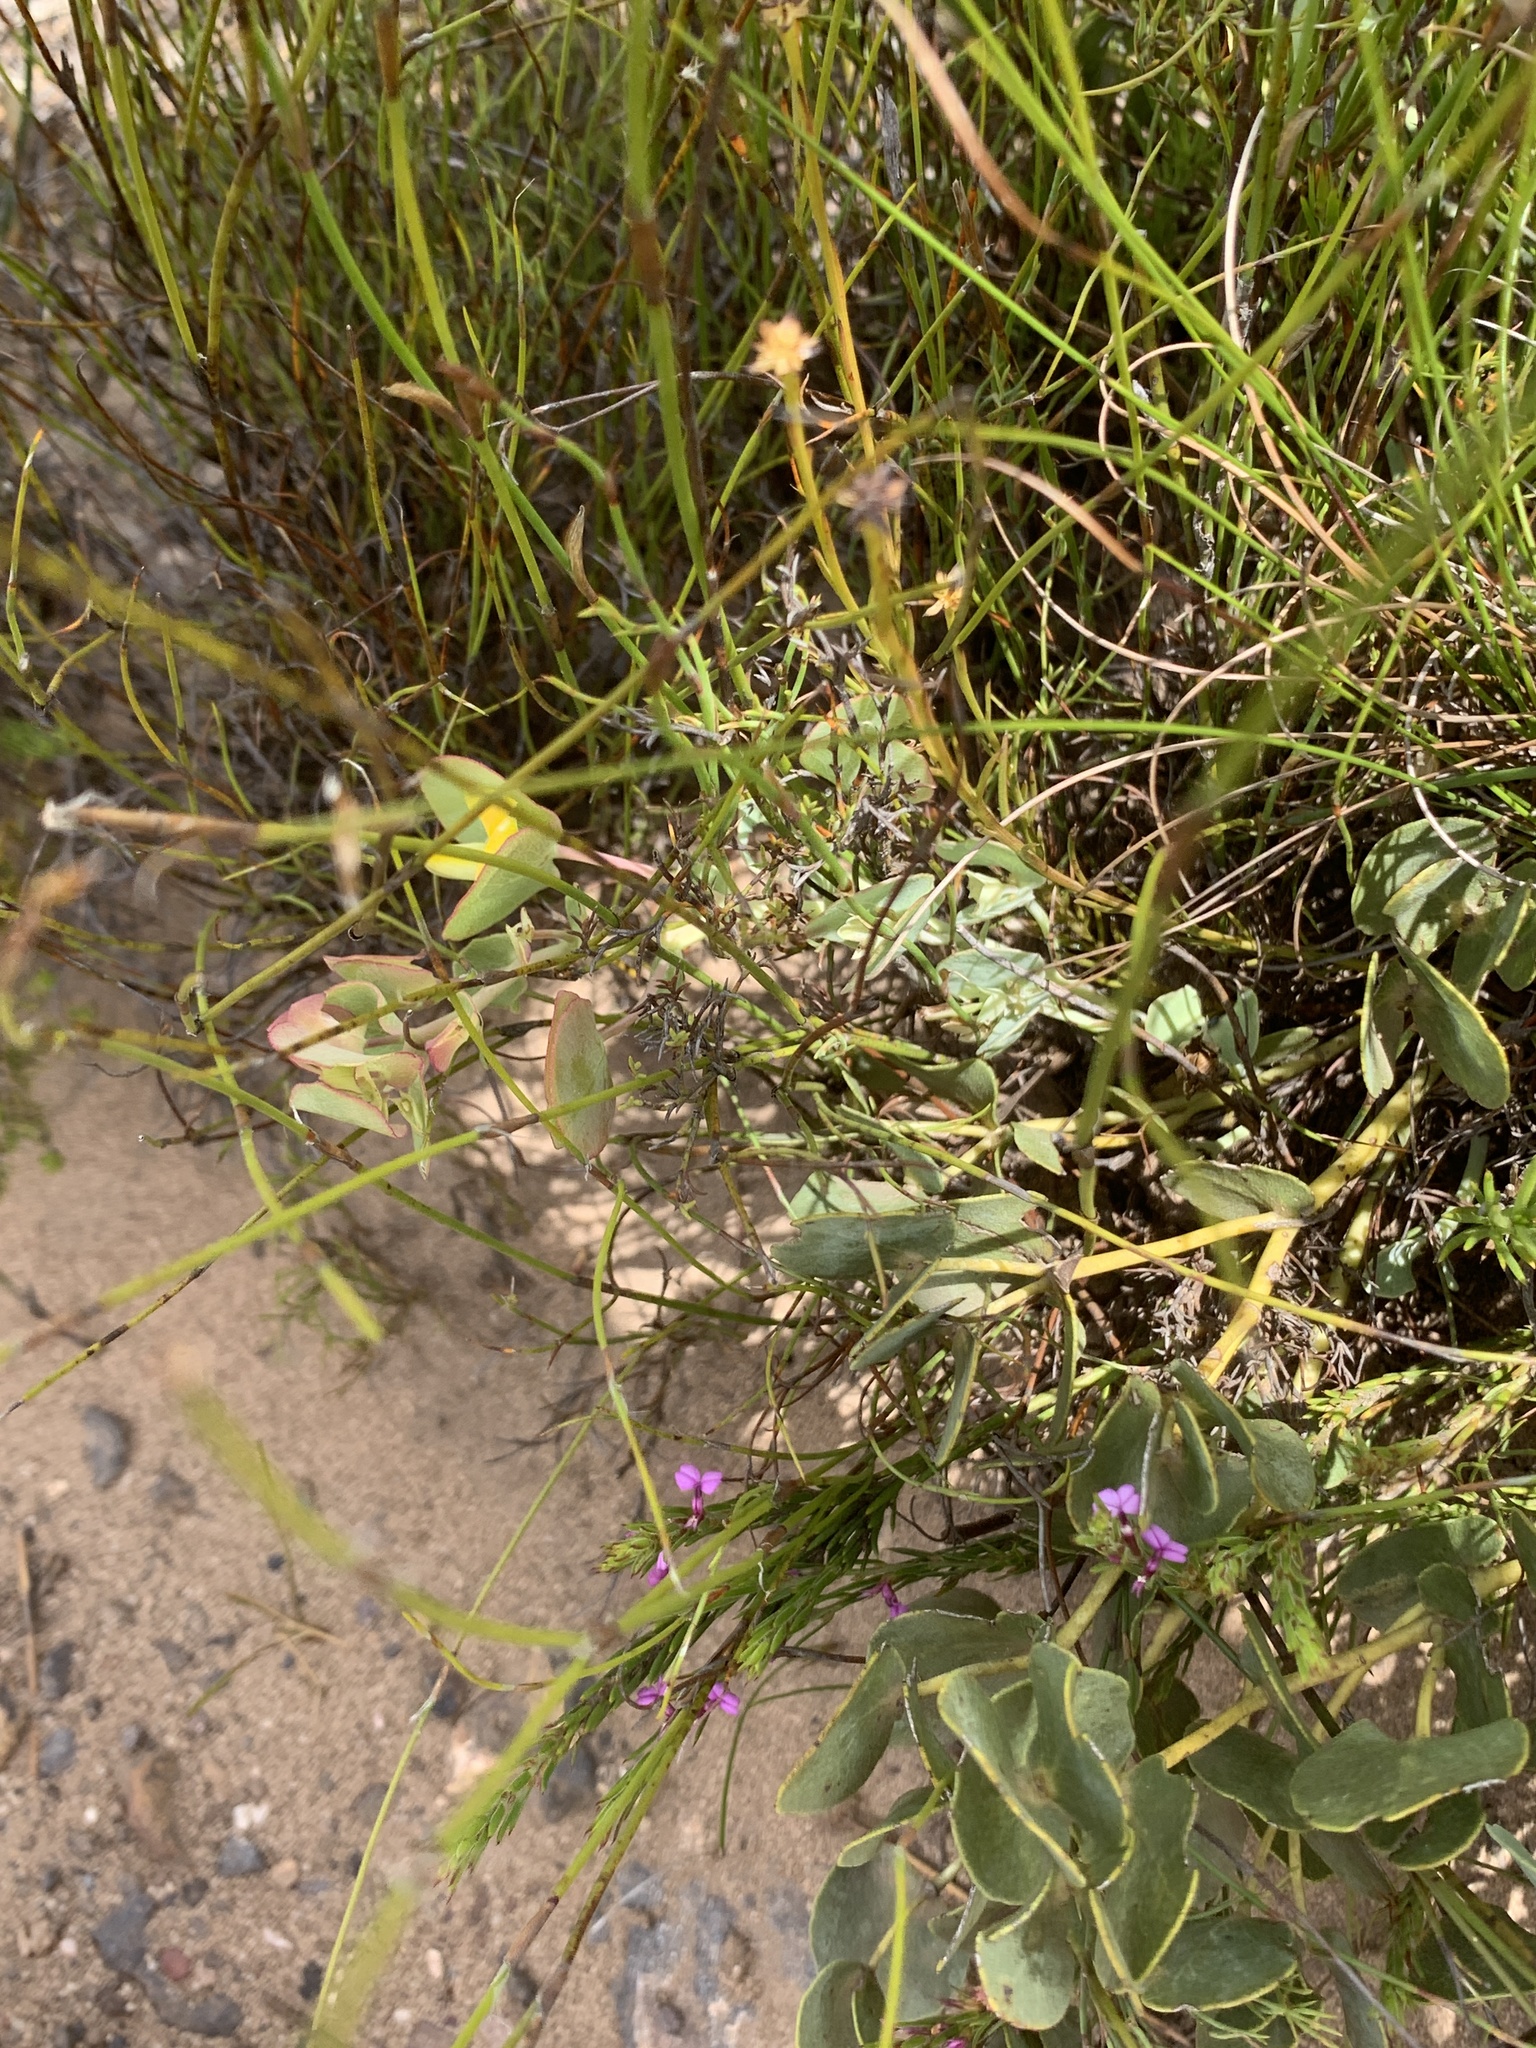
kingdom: Plantae
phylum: Tracheophyta
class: Magnoliopsida
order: Fabales
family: Fabaceae
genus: Rafnia
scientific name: Rafnia acuminata
